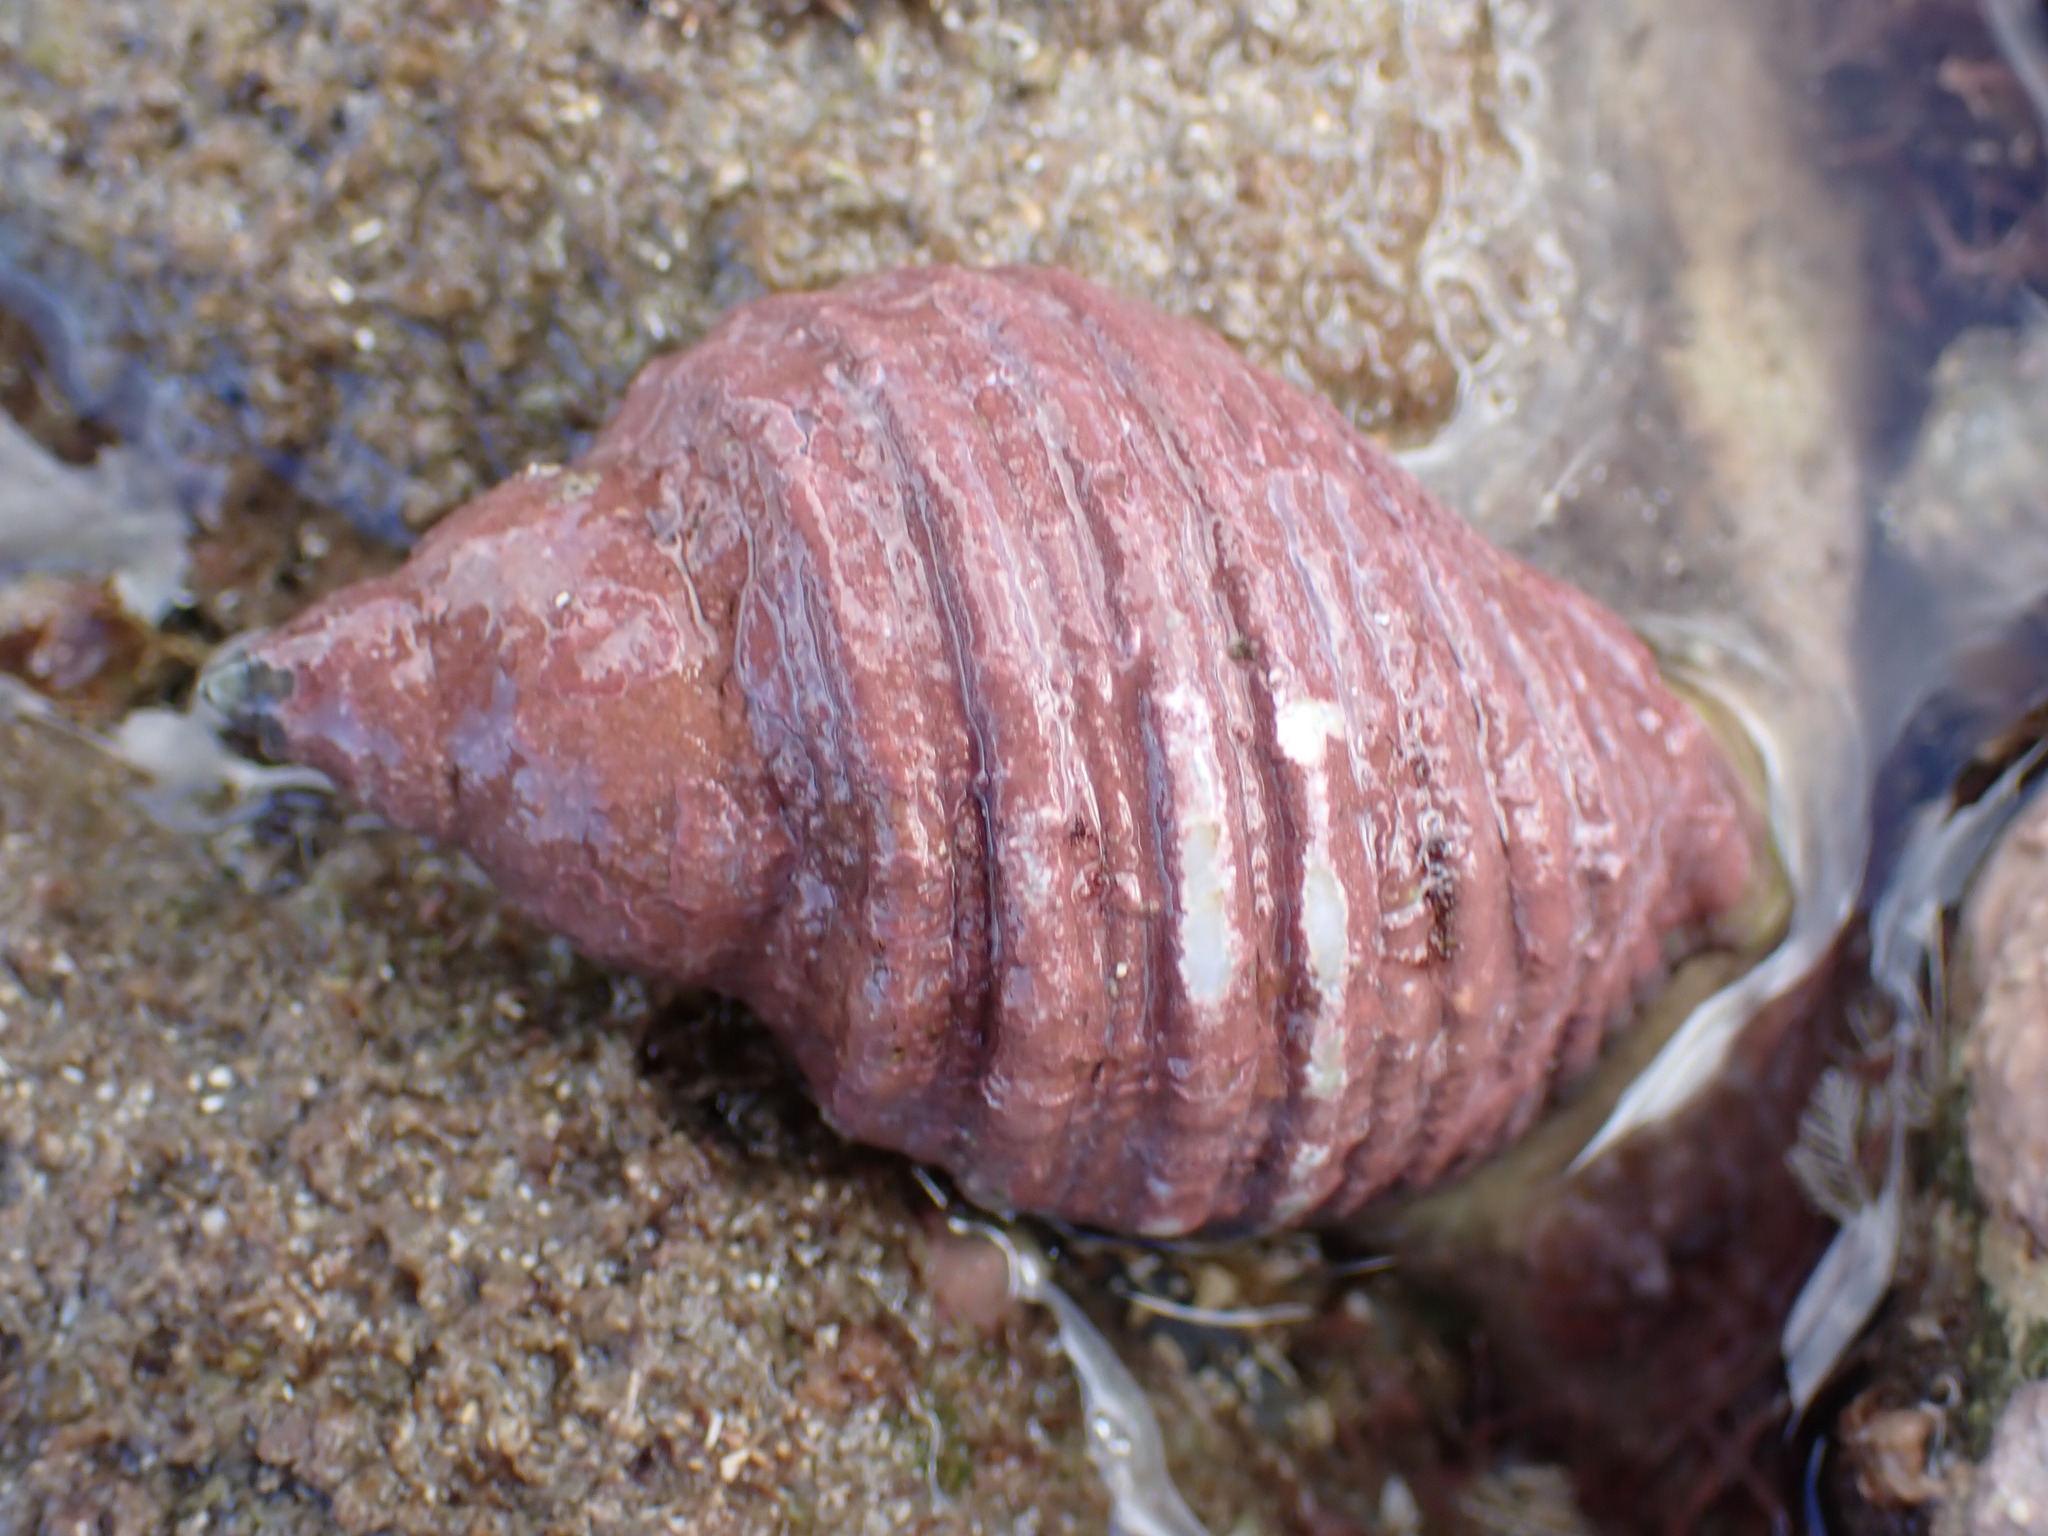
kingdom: Animalia
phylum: Mollusca
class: Gastropoda
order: Neogastropoda
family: Muricidae
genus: Dicathais
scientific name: Dicathais orbita
